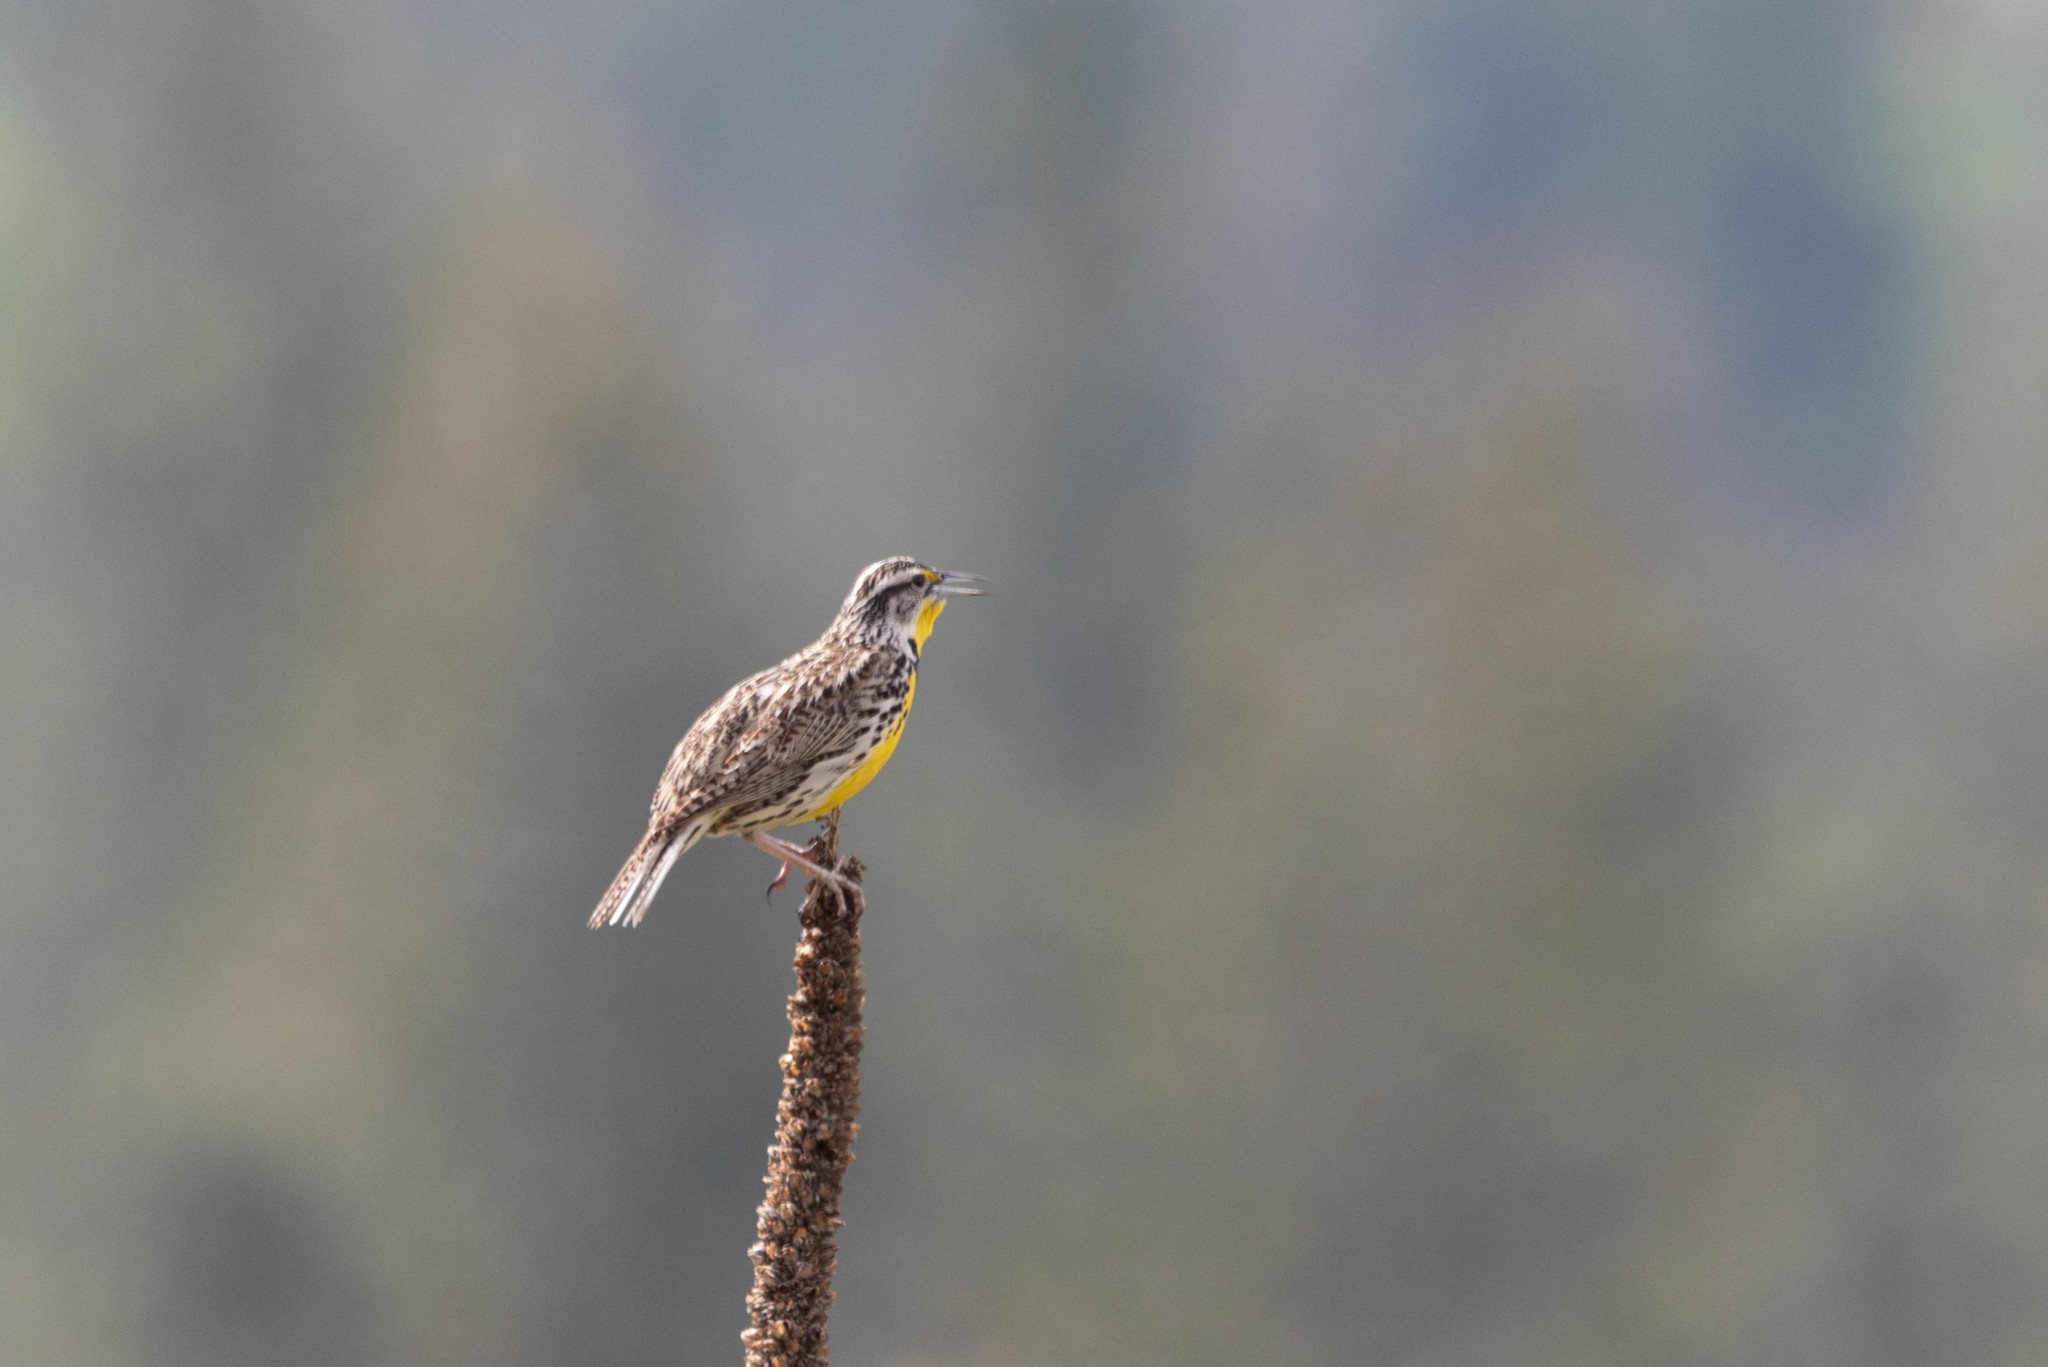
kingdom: Animalia
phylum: Chordata
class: Aves
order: Passeriformes
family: Icteridae
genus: Sturnella
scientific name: Sturnella neglecta
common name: Western meadowlark
